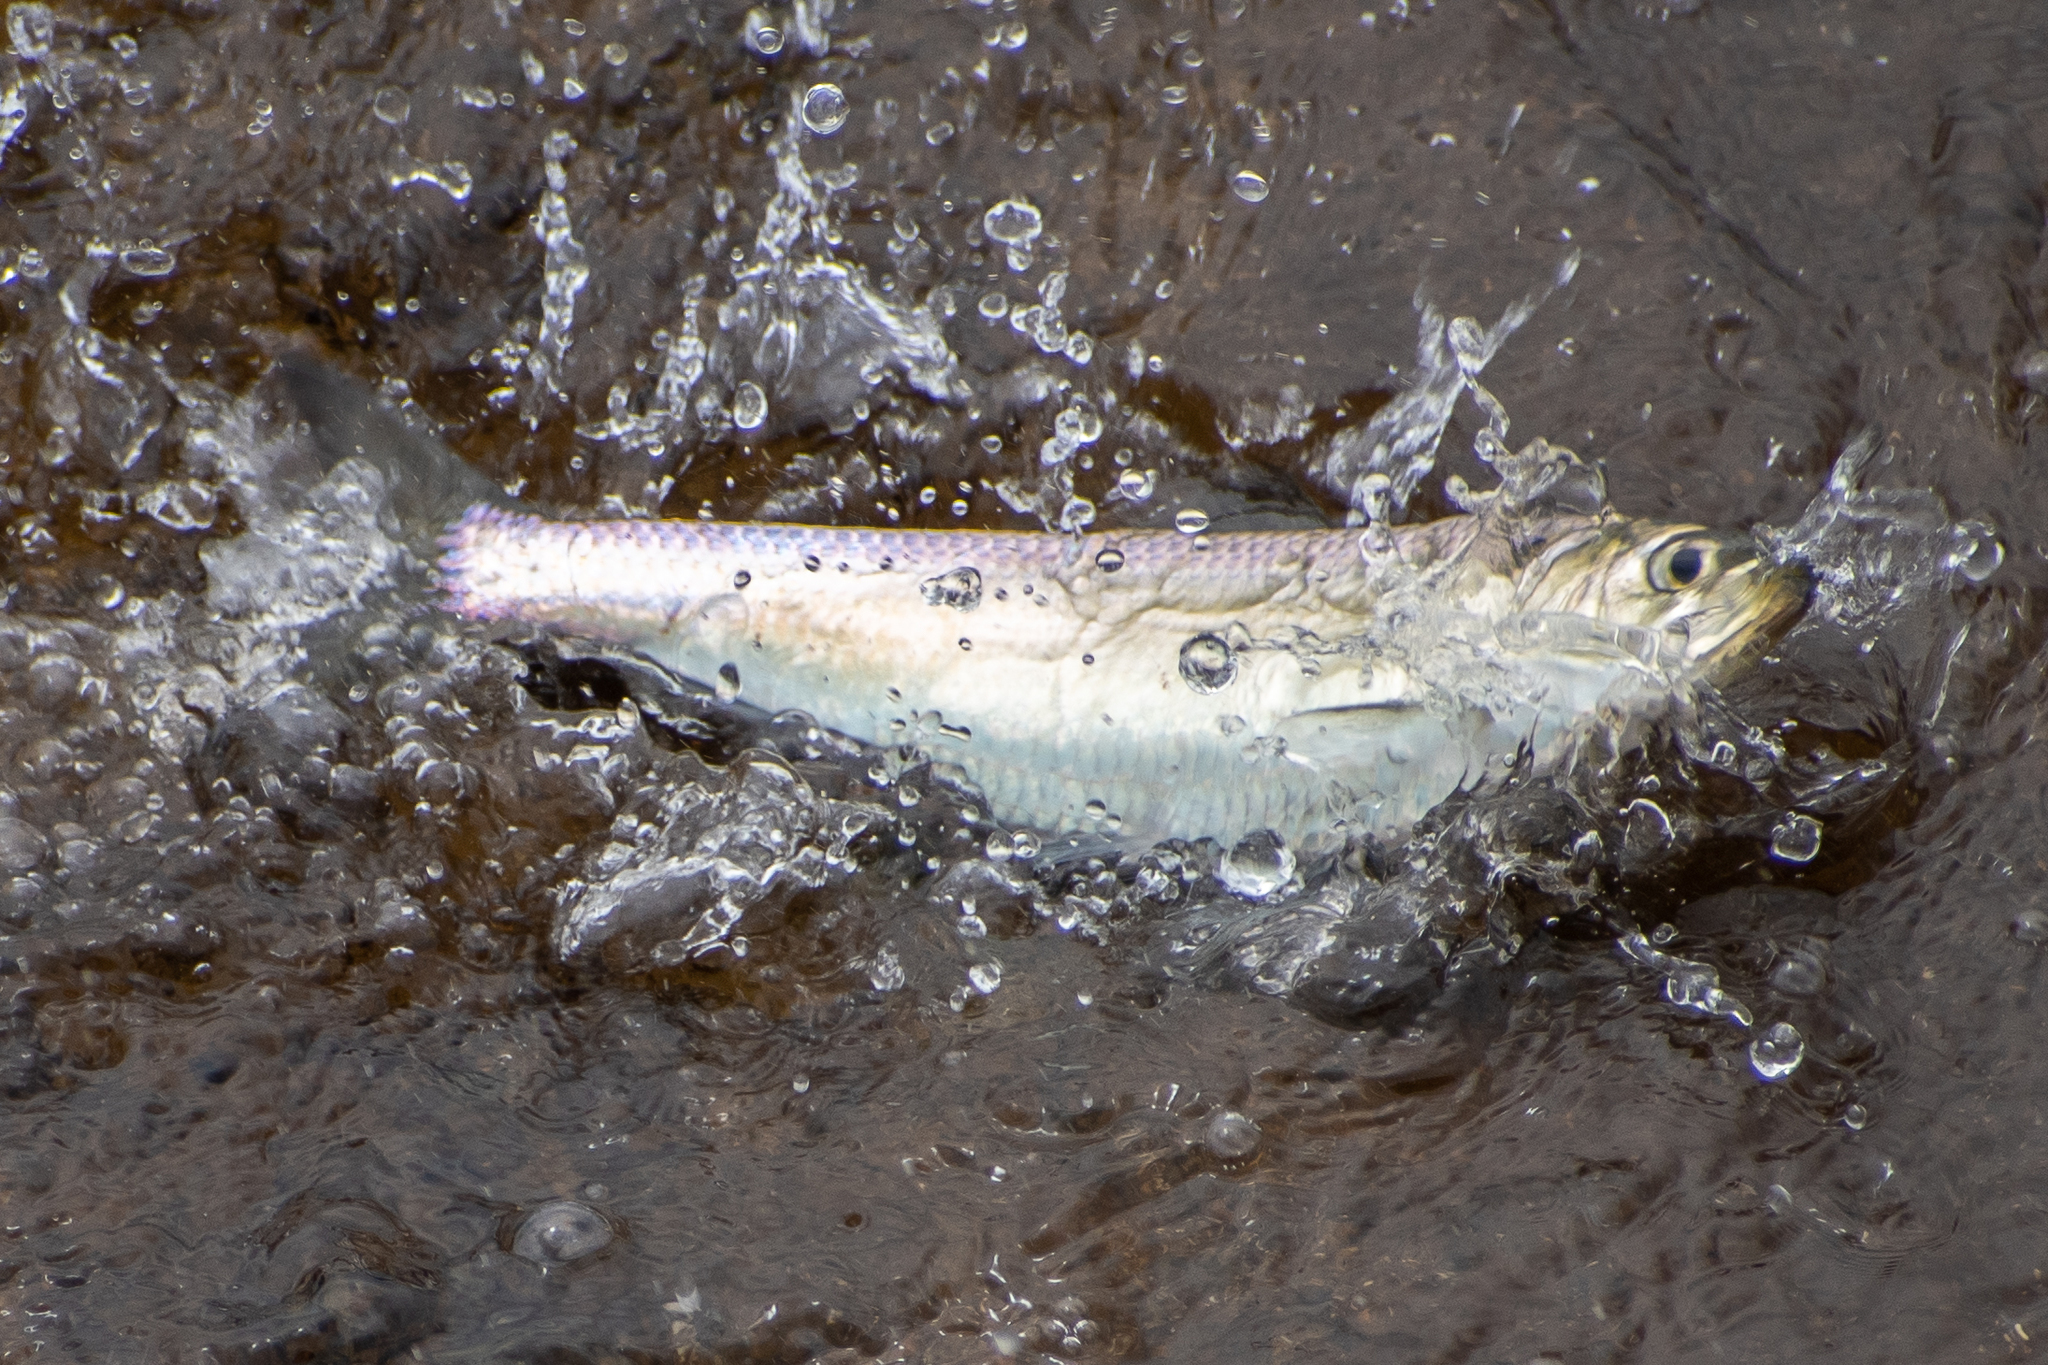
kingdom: Animalia
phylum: Chordata
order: Clupeiformes
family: Clupeidae
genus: Alosa
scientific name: Alosa
